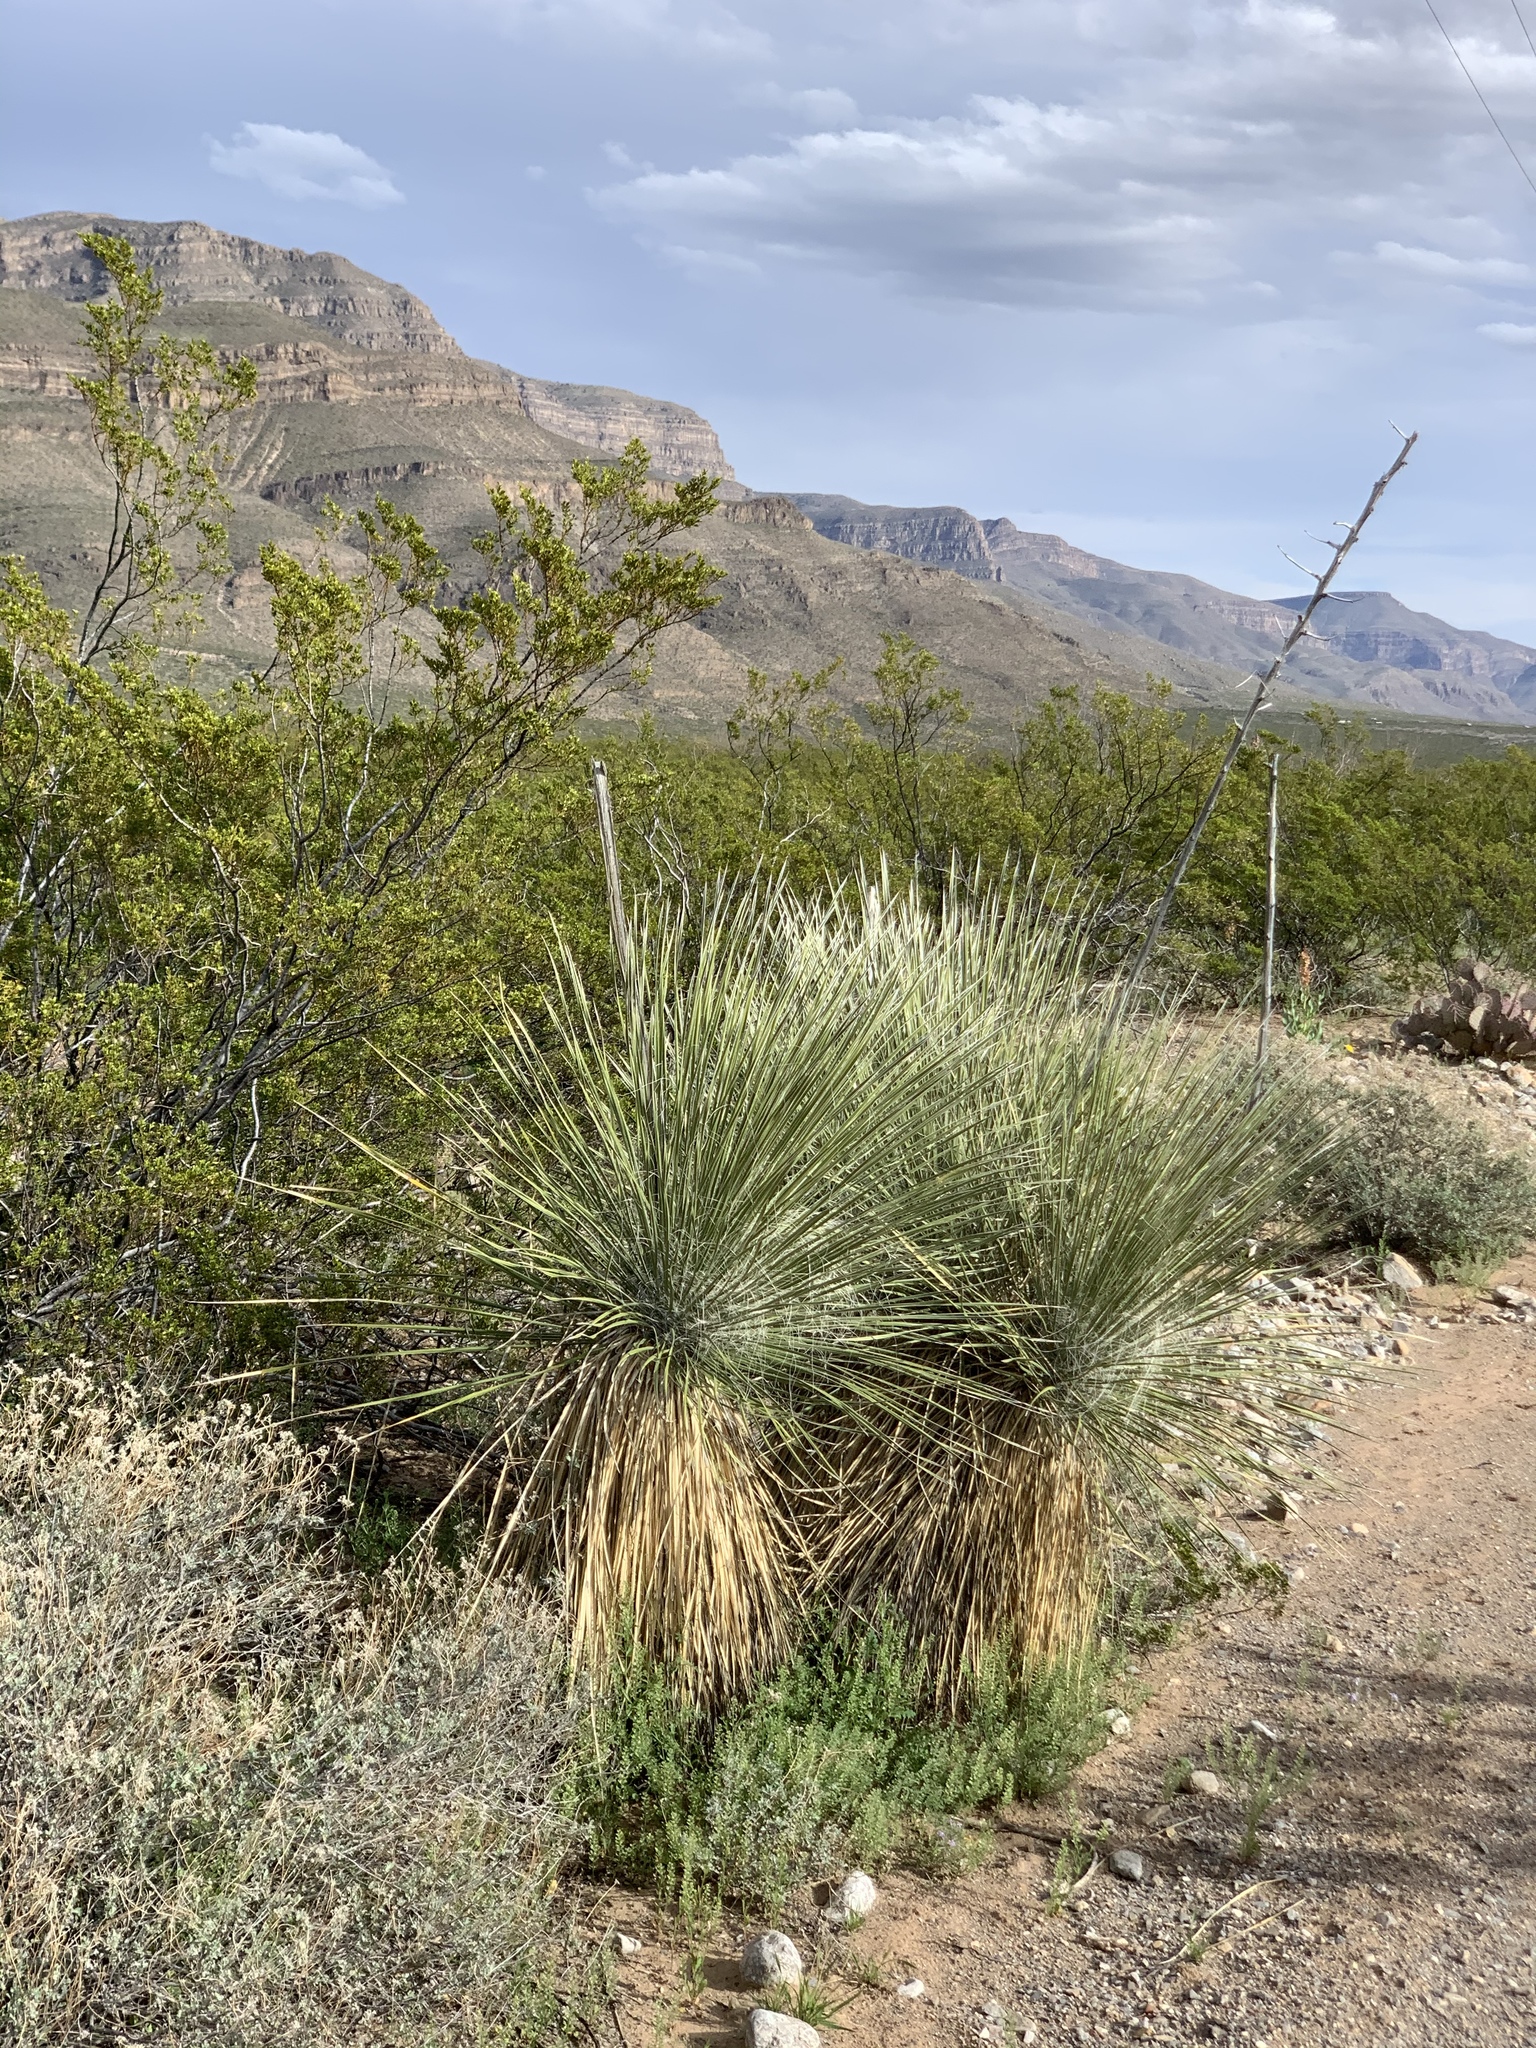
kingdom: Plantae
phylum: Tracheophyta
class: Liliopsida
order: Asparagales
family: Asparagaceae
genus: Yucca
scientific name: Yucca elata
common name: Palmella
